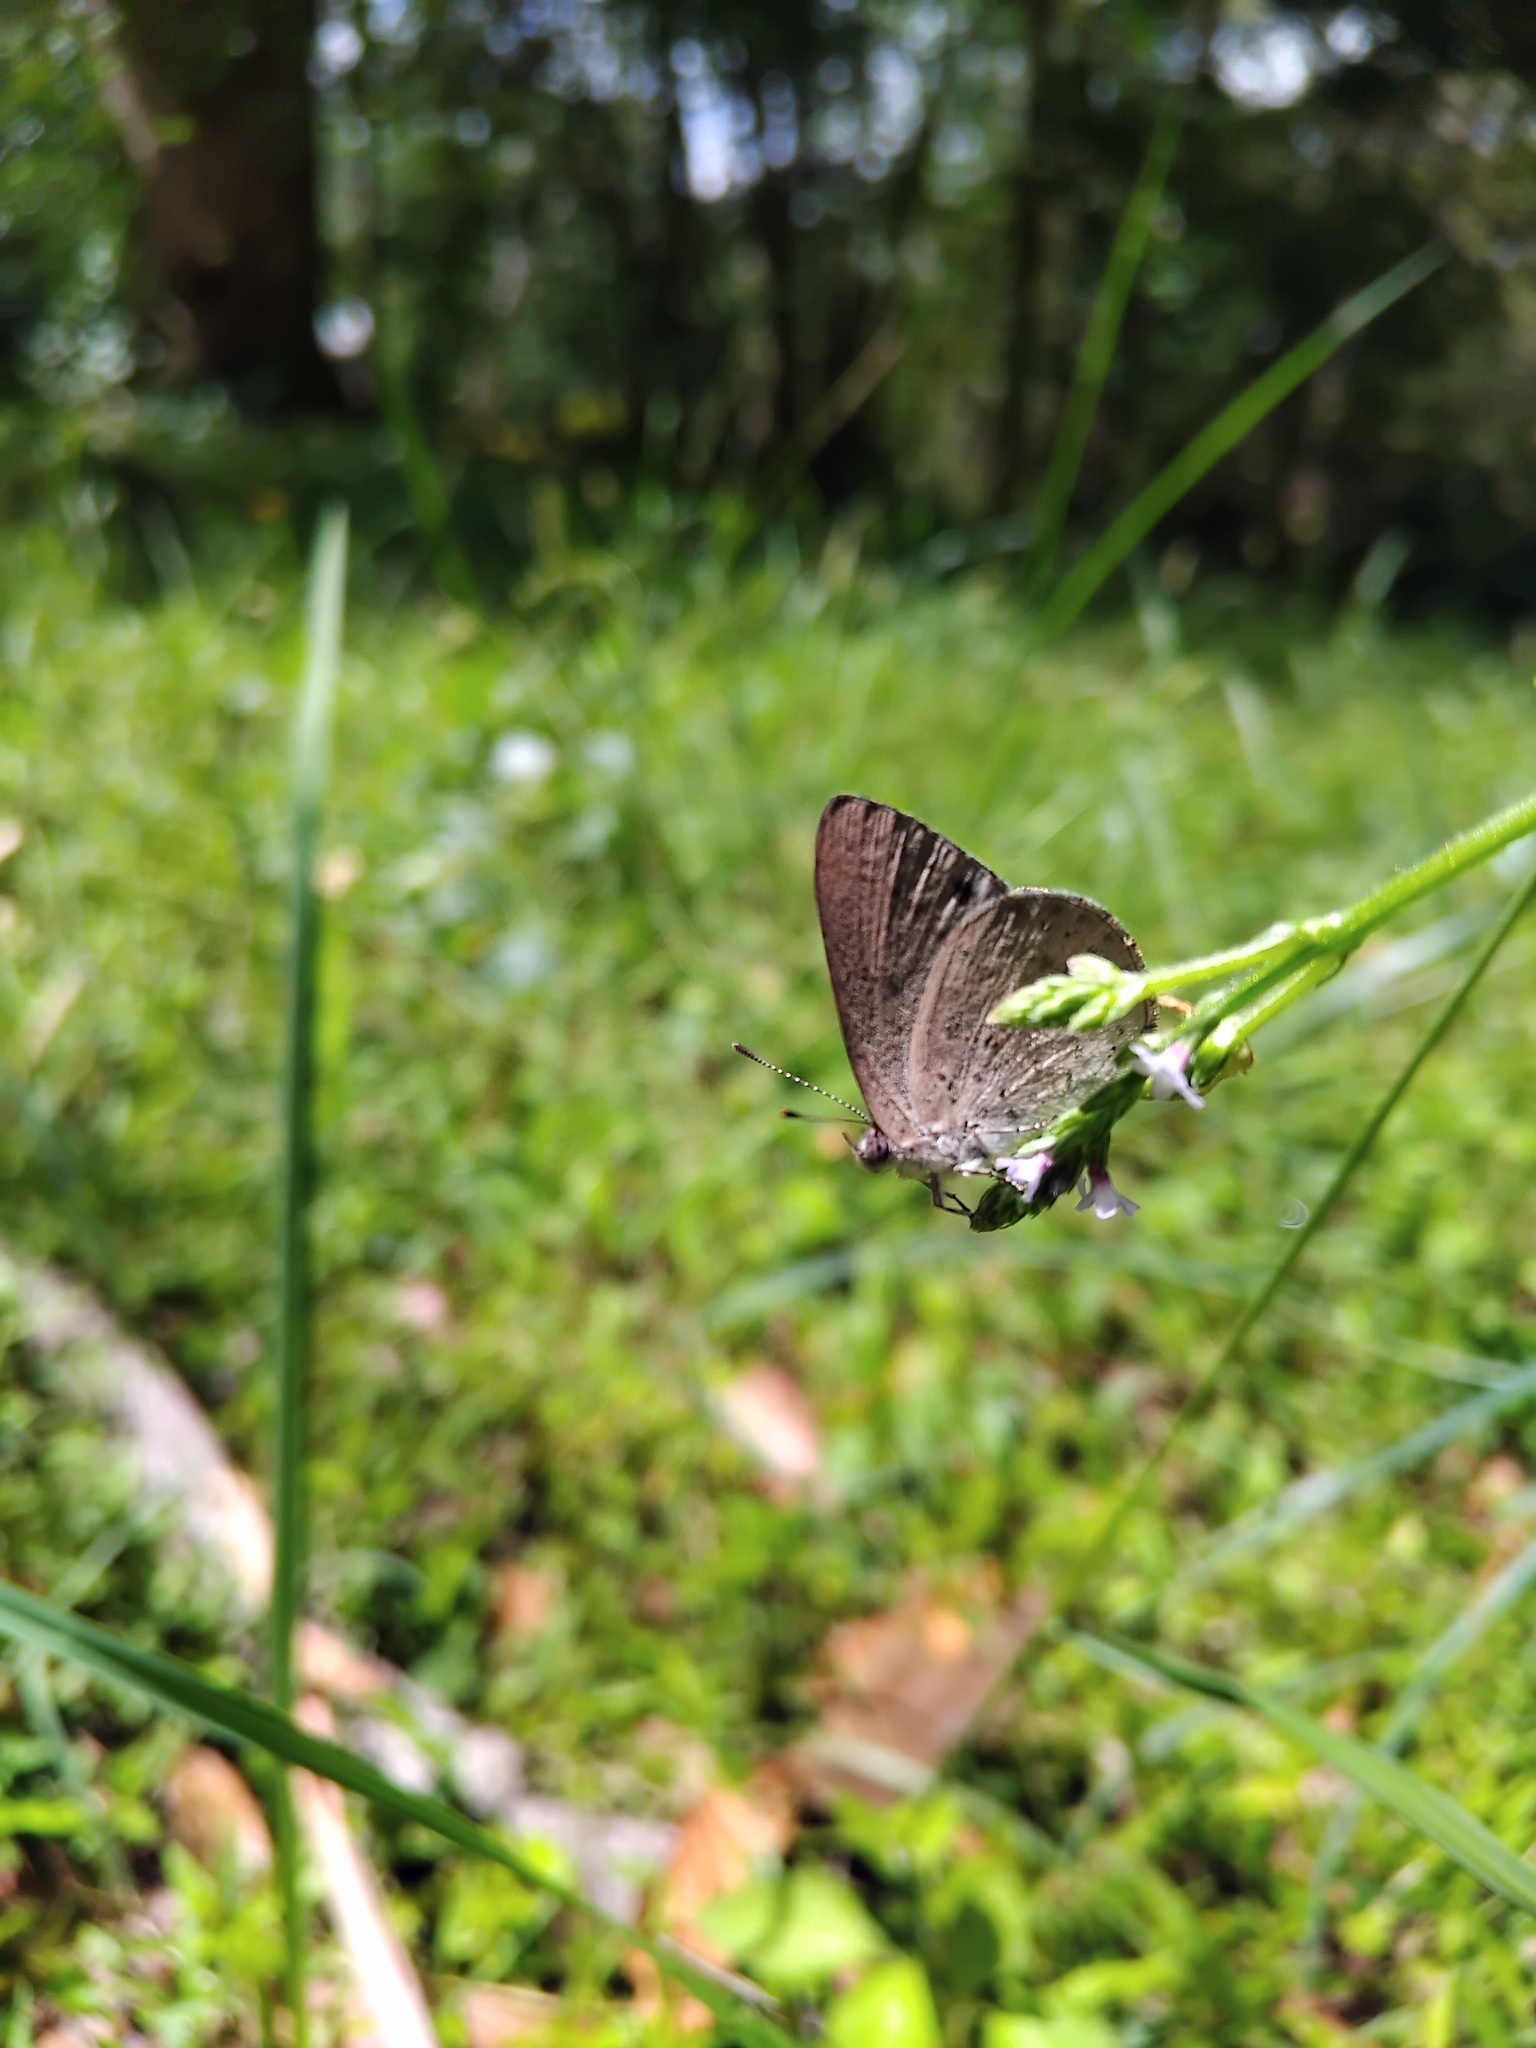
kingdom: Animalia
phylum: Arthropoda
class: Insecta
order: Lepidoptera
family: Lycaenidae
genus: Candalides
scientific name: Candalides
